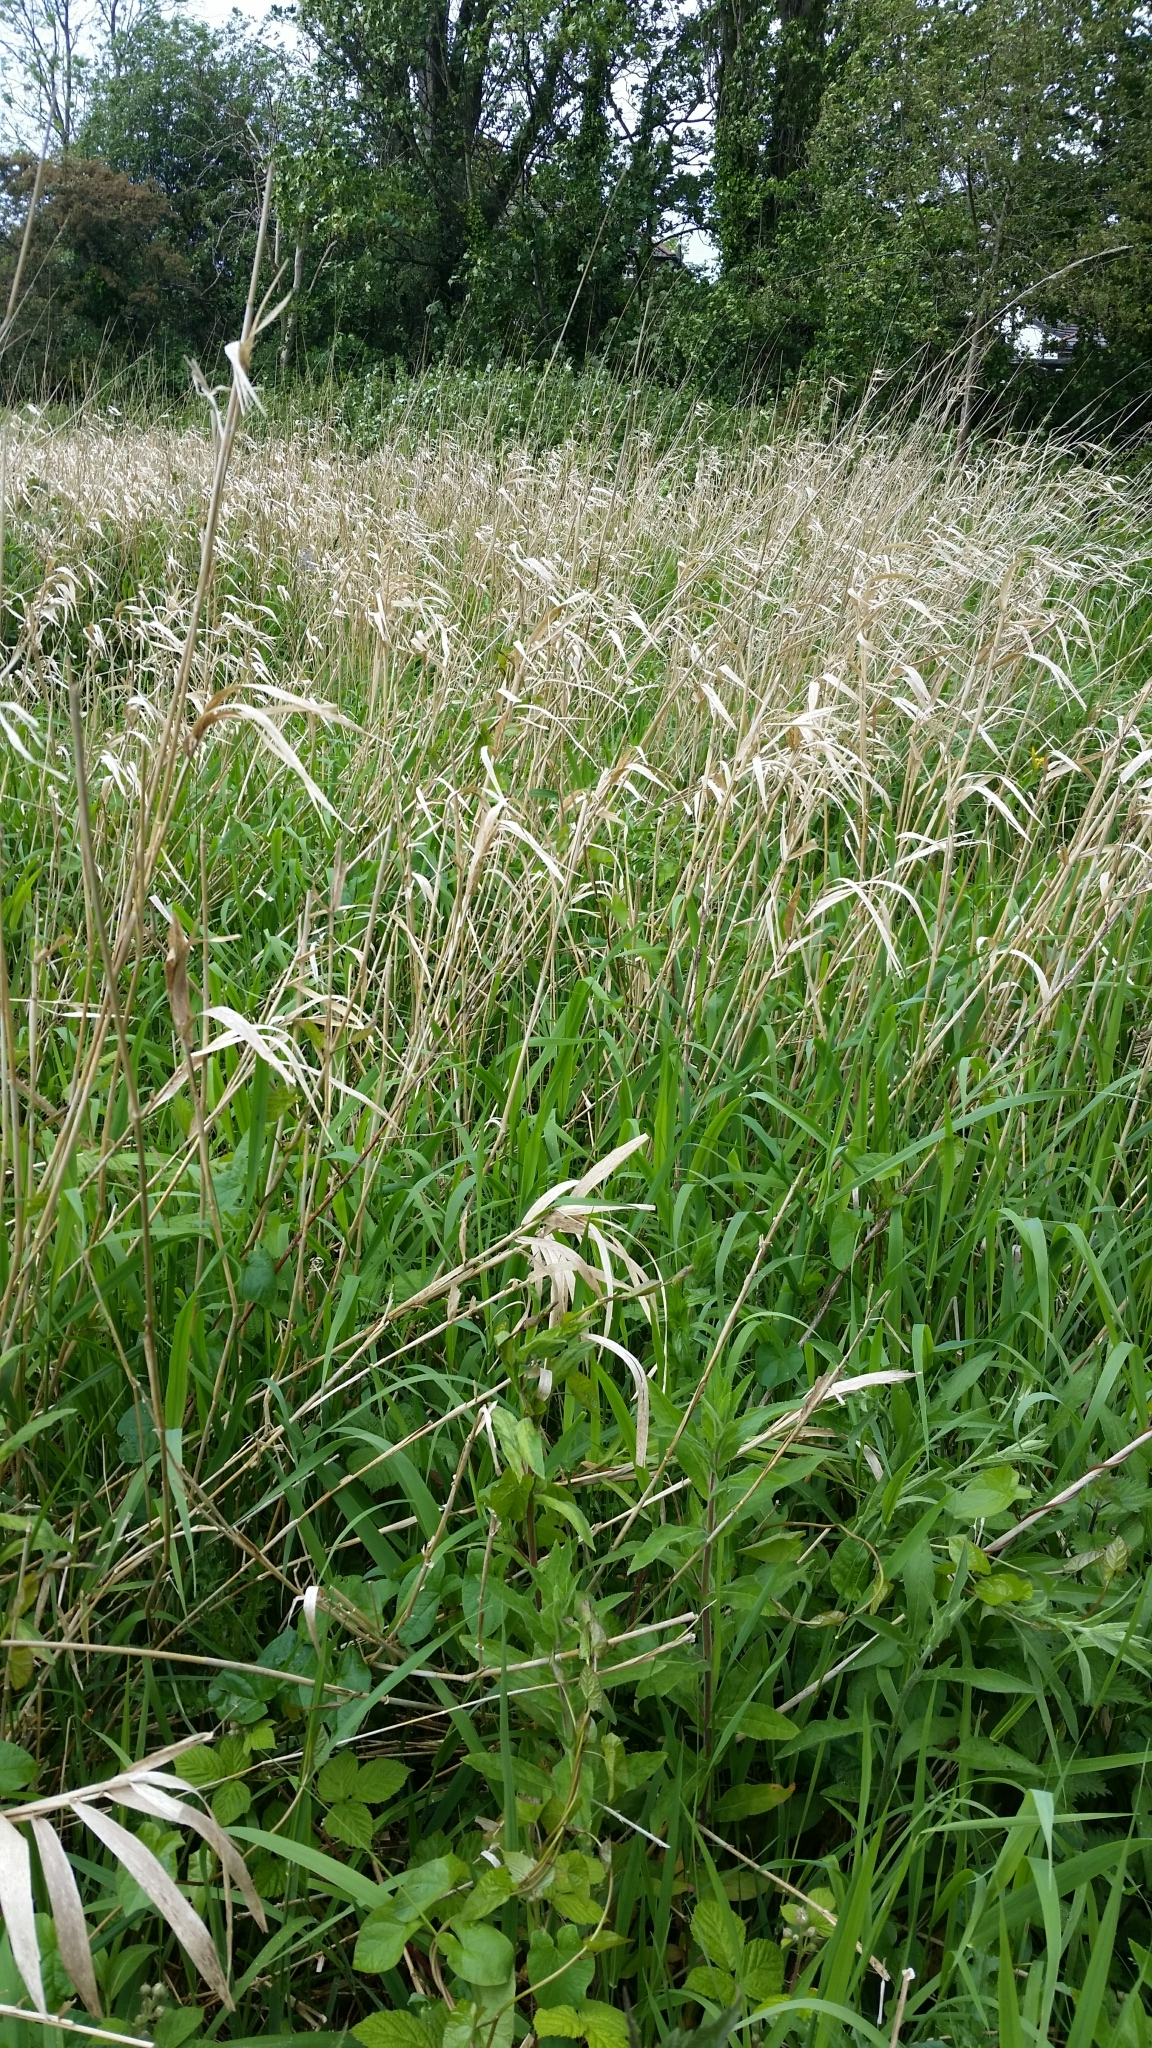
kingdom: Plantae
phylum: Tracheophyta
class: Liliopsida
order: Poales
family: Poaceae
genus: Phalaris
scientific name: Phalaris arundinacea
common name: Reed canary-grass
